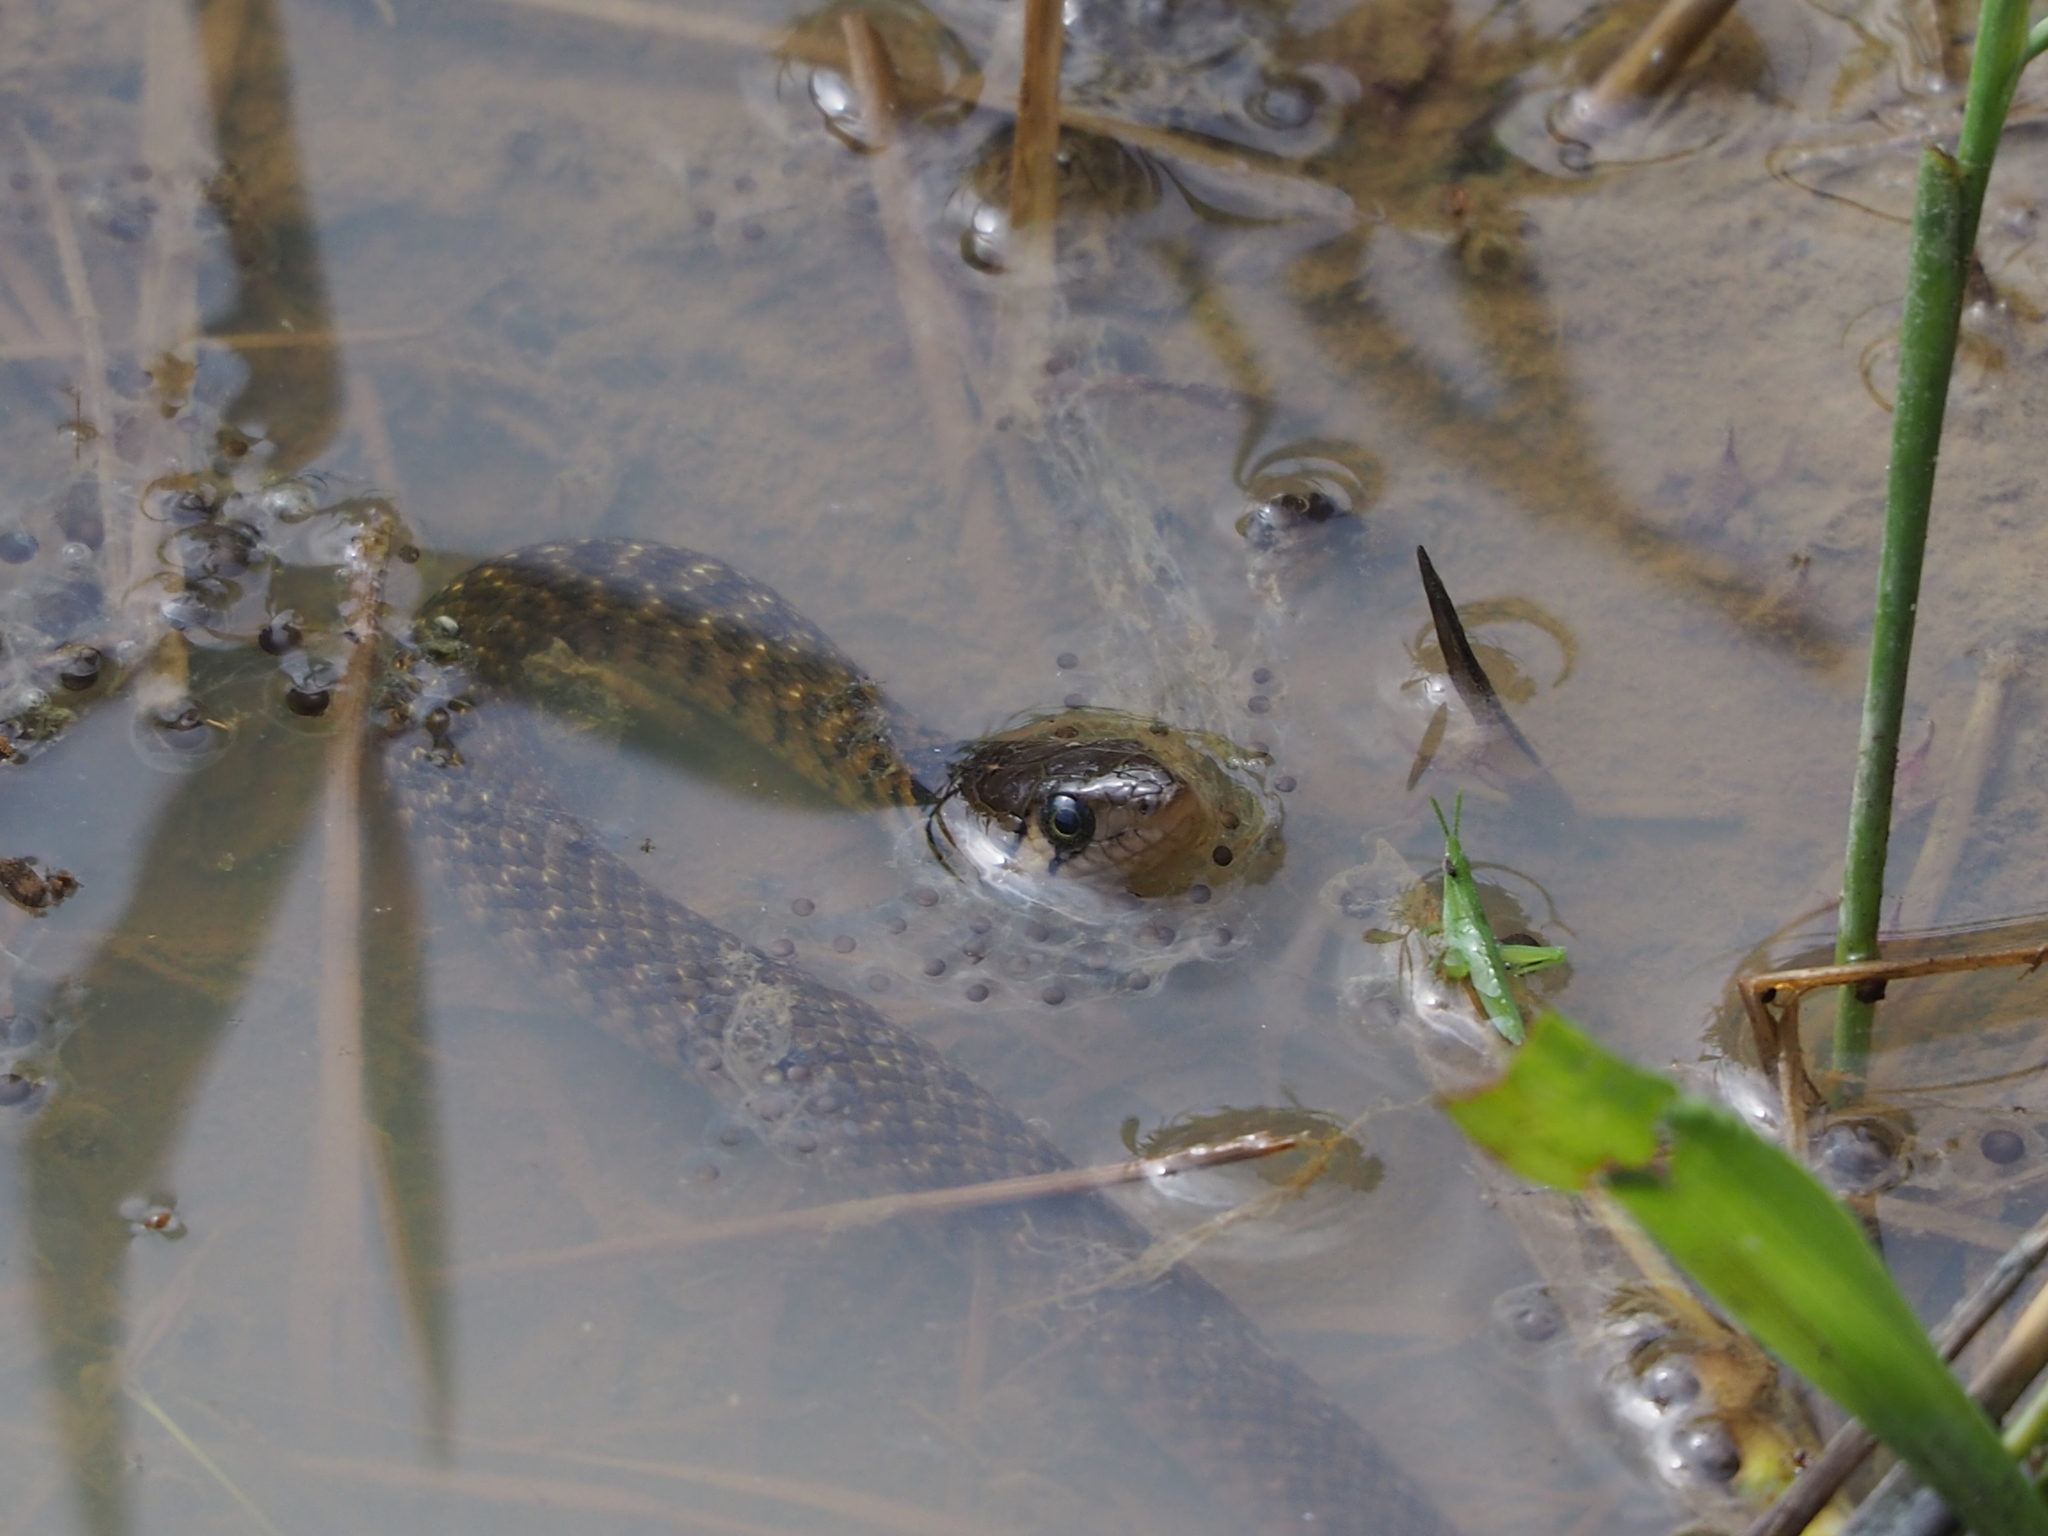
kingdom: Animalia
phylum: Chordata
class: Squamata
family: Colubridae
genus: Fowlea
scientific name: Fowlea flavipunctatus
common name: Yellow-spotted keelback
